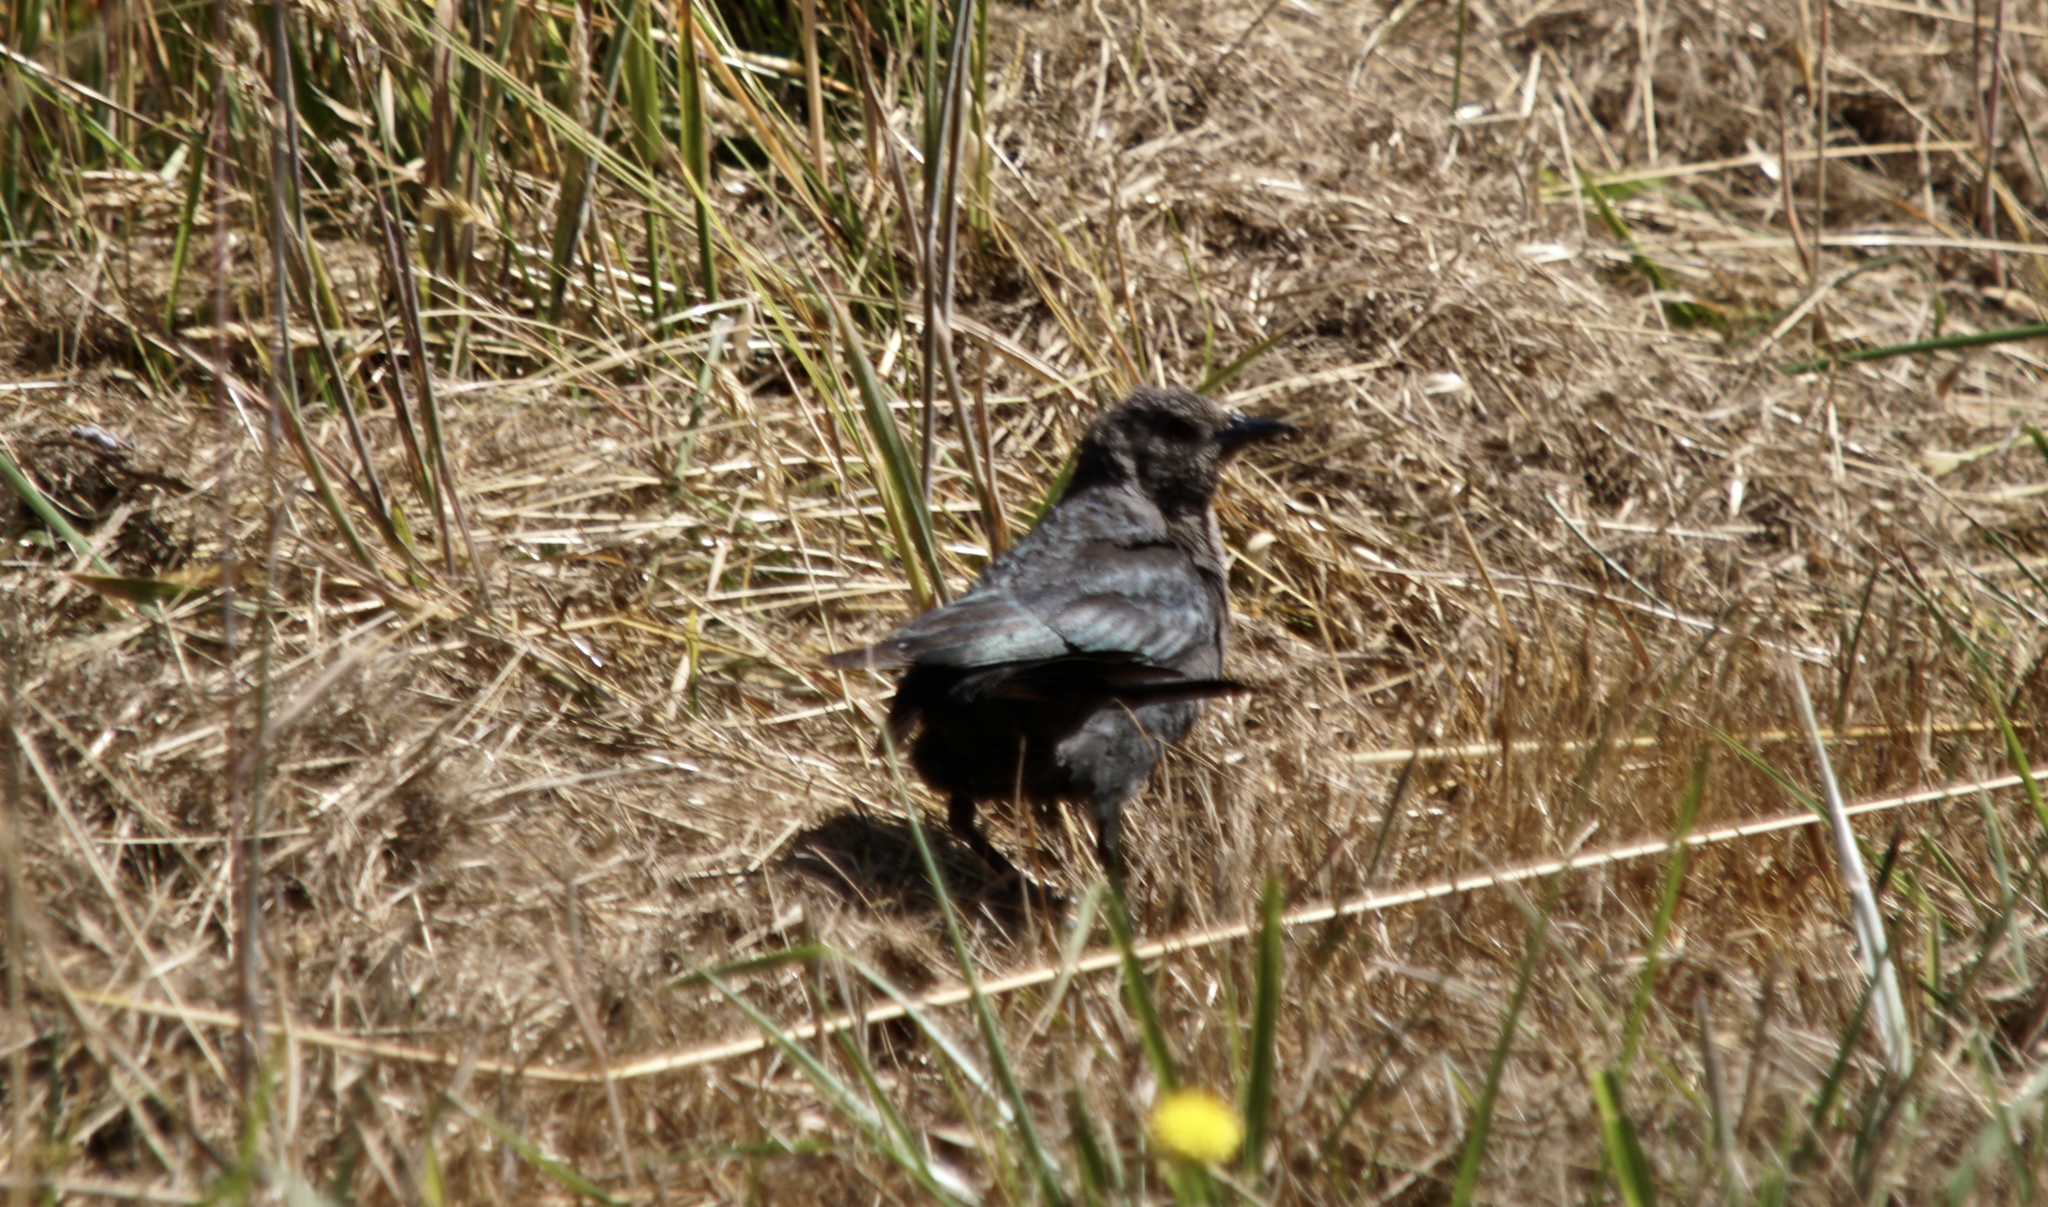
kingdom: Animalia
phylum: Chordata
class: Aves
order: Passeriformes
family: Icteridae
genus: Euphagus
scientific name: Euphagus cyanocephalus
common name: Brewer's blackbird
